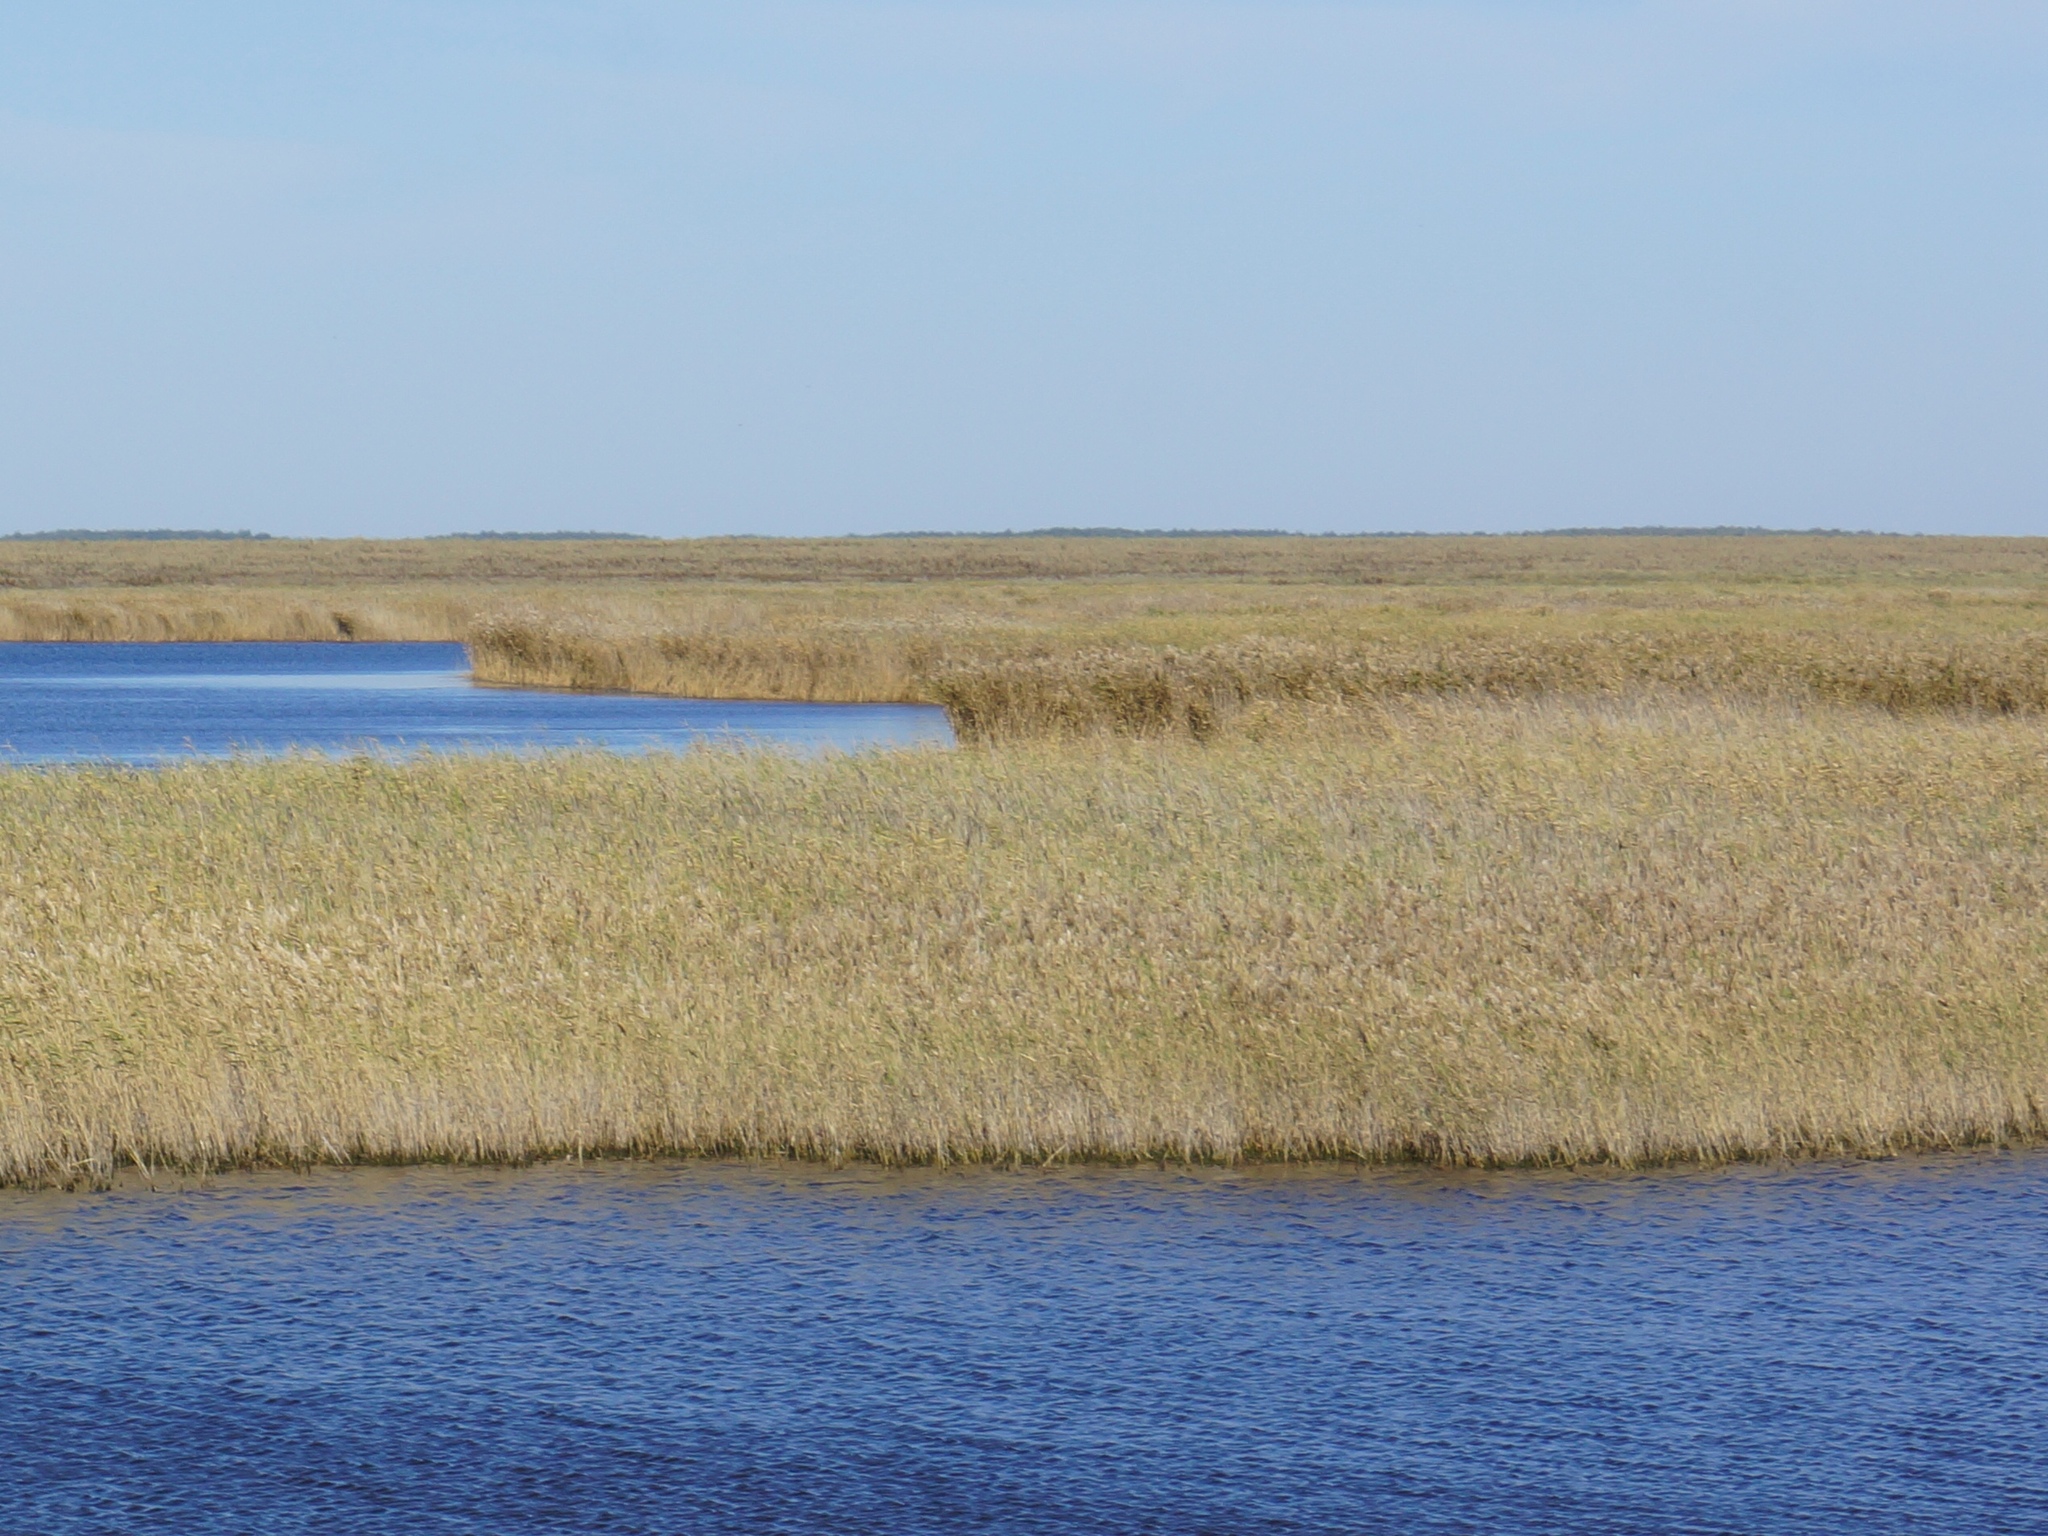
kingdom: Plantae
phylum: Tracheophyta
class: Liliopsida
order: Poales
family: Poaceae
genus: Phragmites
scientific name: Phragmites australis
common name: Common reed
